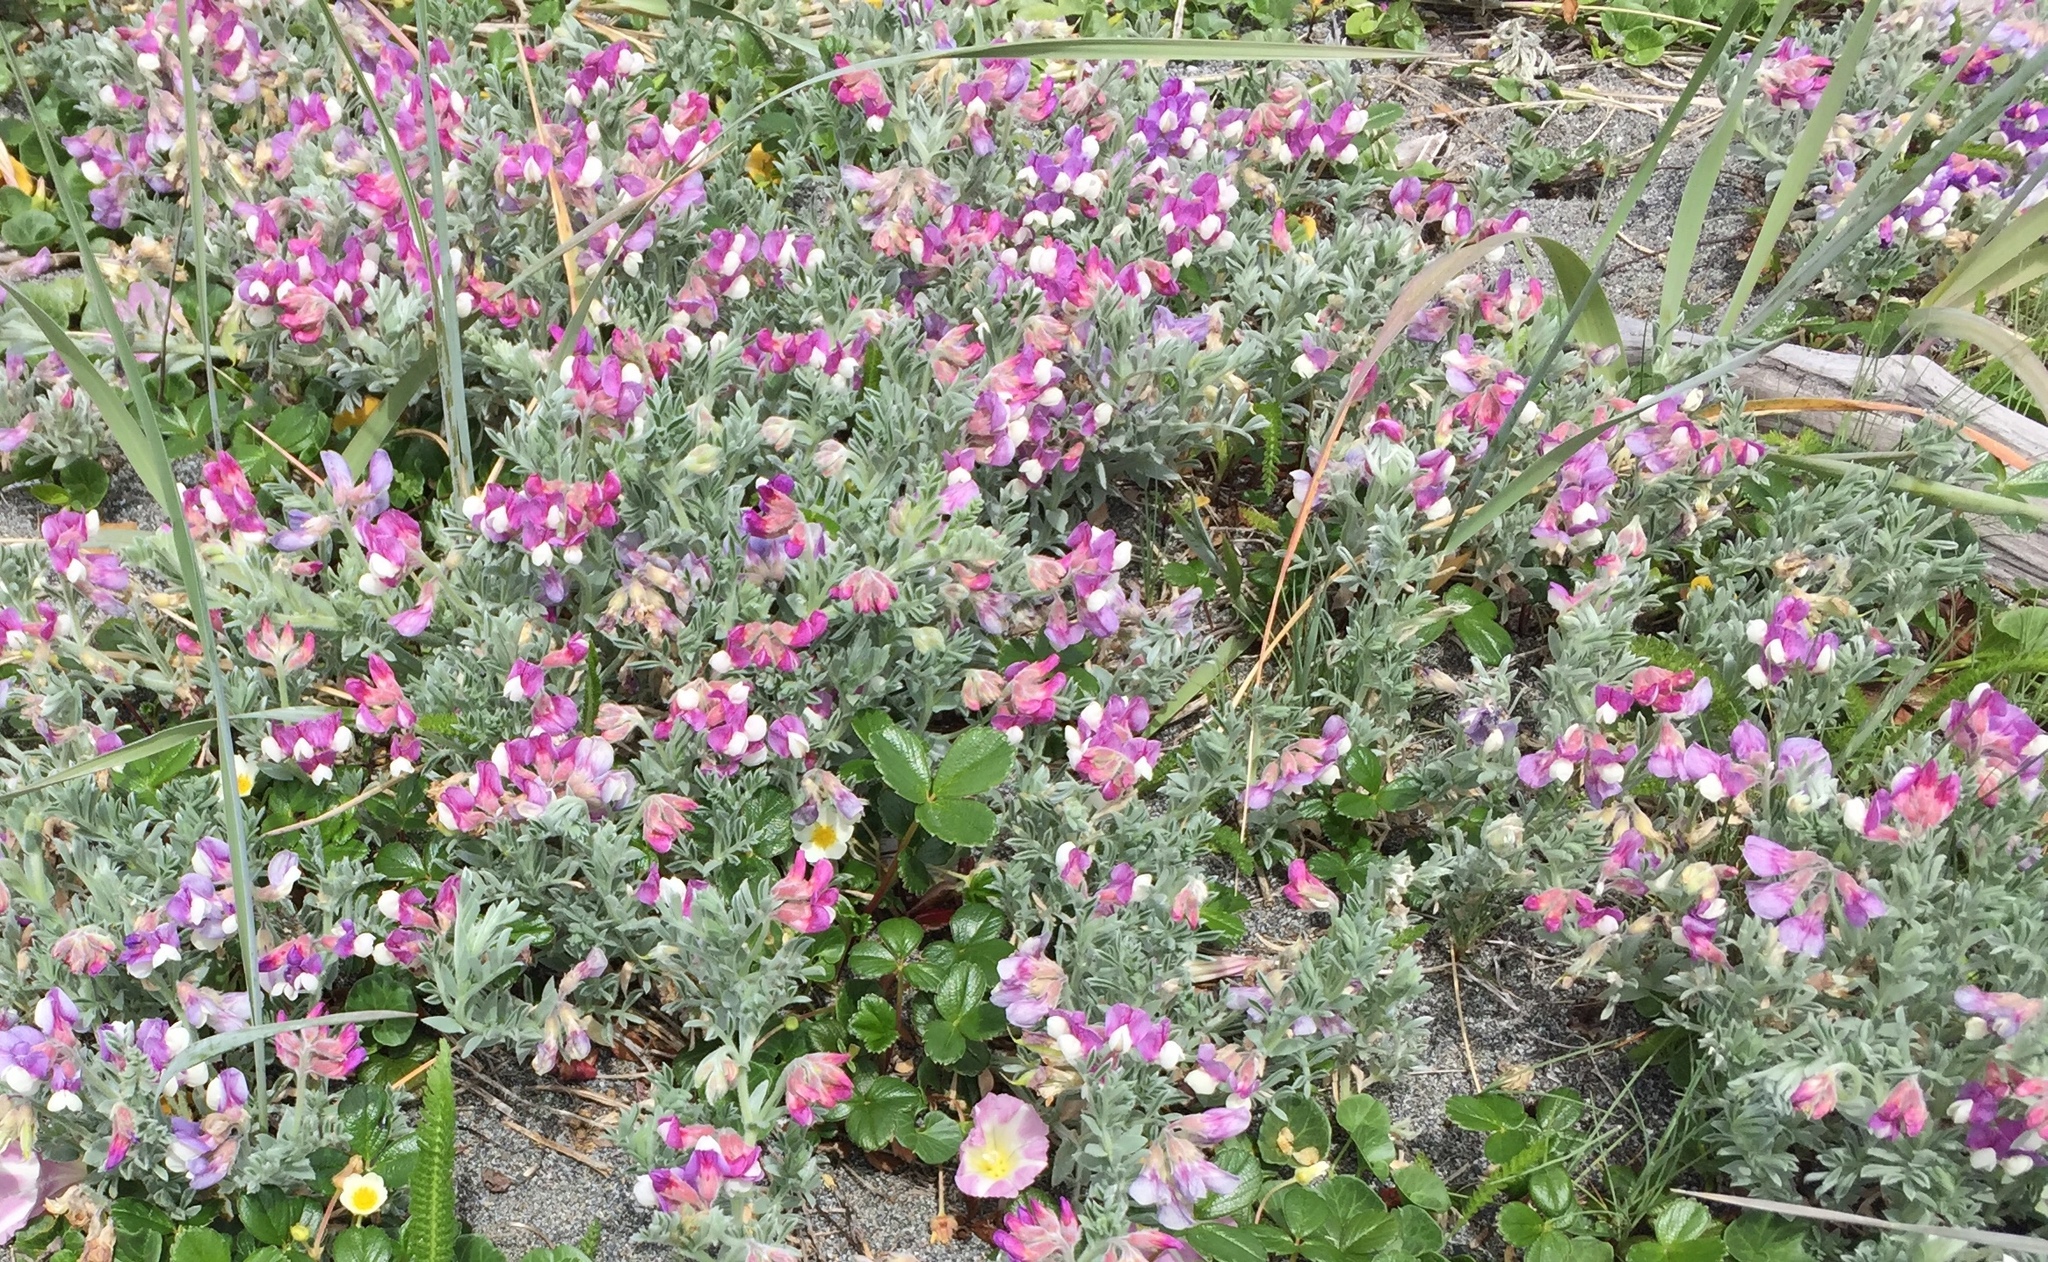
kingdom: Plantae
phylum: Tracheophyta
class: Magnoliopsida
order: Fabales
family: Fabaceae
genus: Lathyrus
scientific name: Lathyrus littoralis
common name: Dune sweet pea
